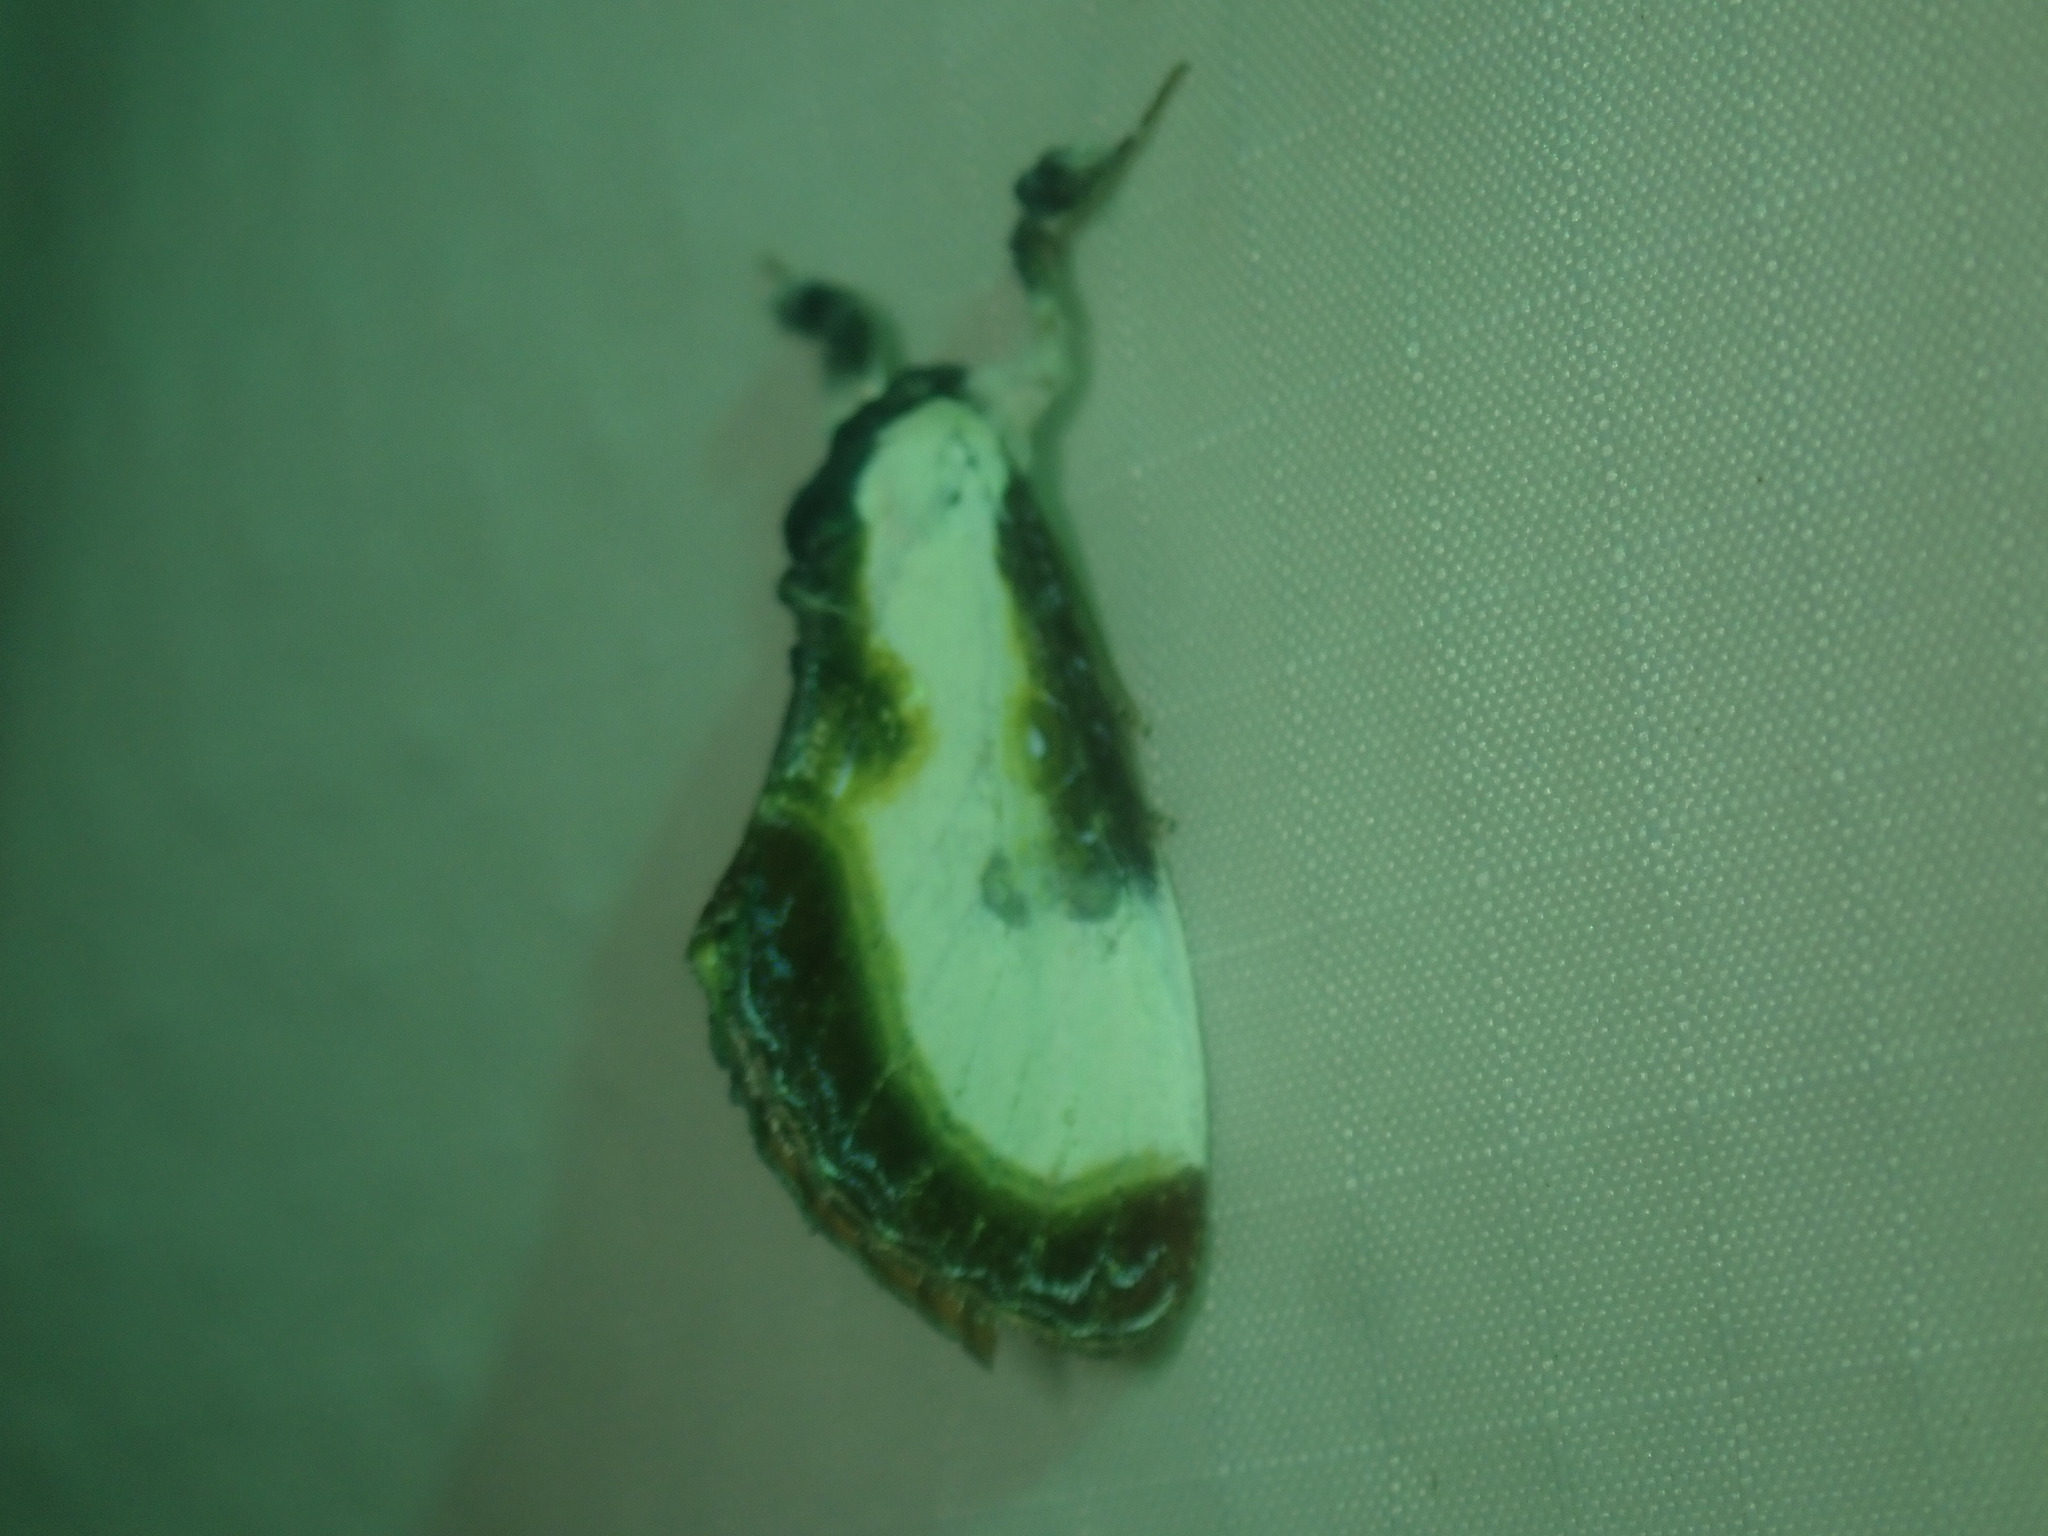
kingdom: Animalia
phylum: Arthropoda
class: Insecta
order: Lepidoptera
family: Noctuidae
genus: Eudryas
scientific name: Eudryas grata
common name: Beautiful wood-nymph
